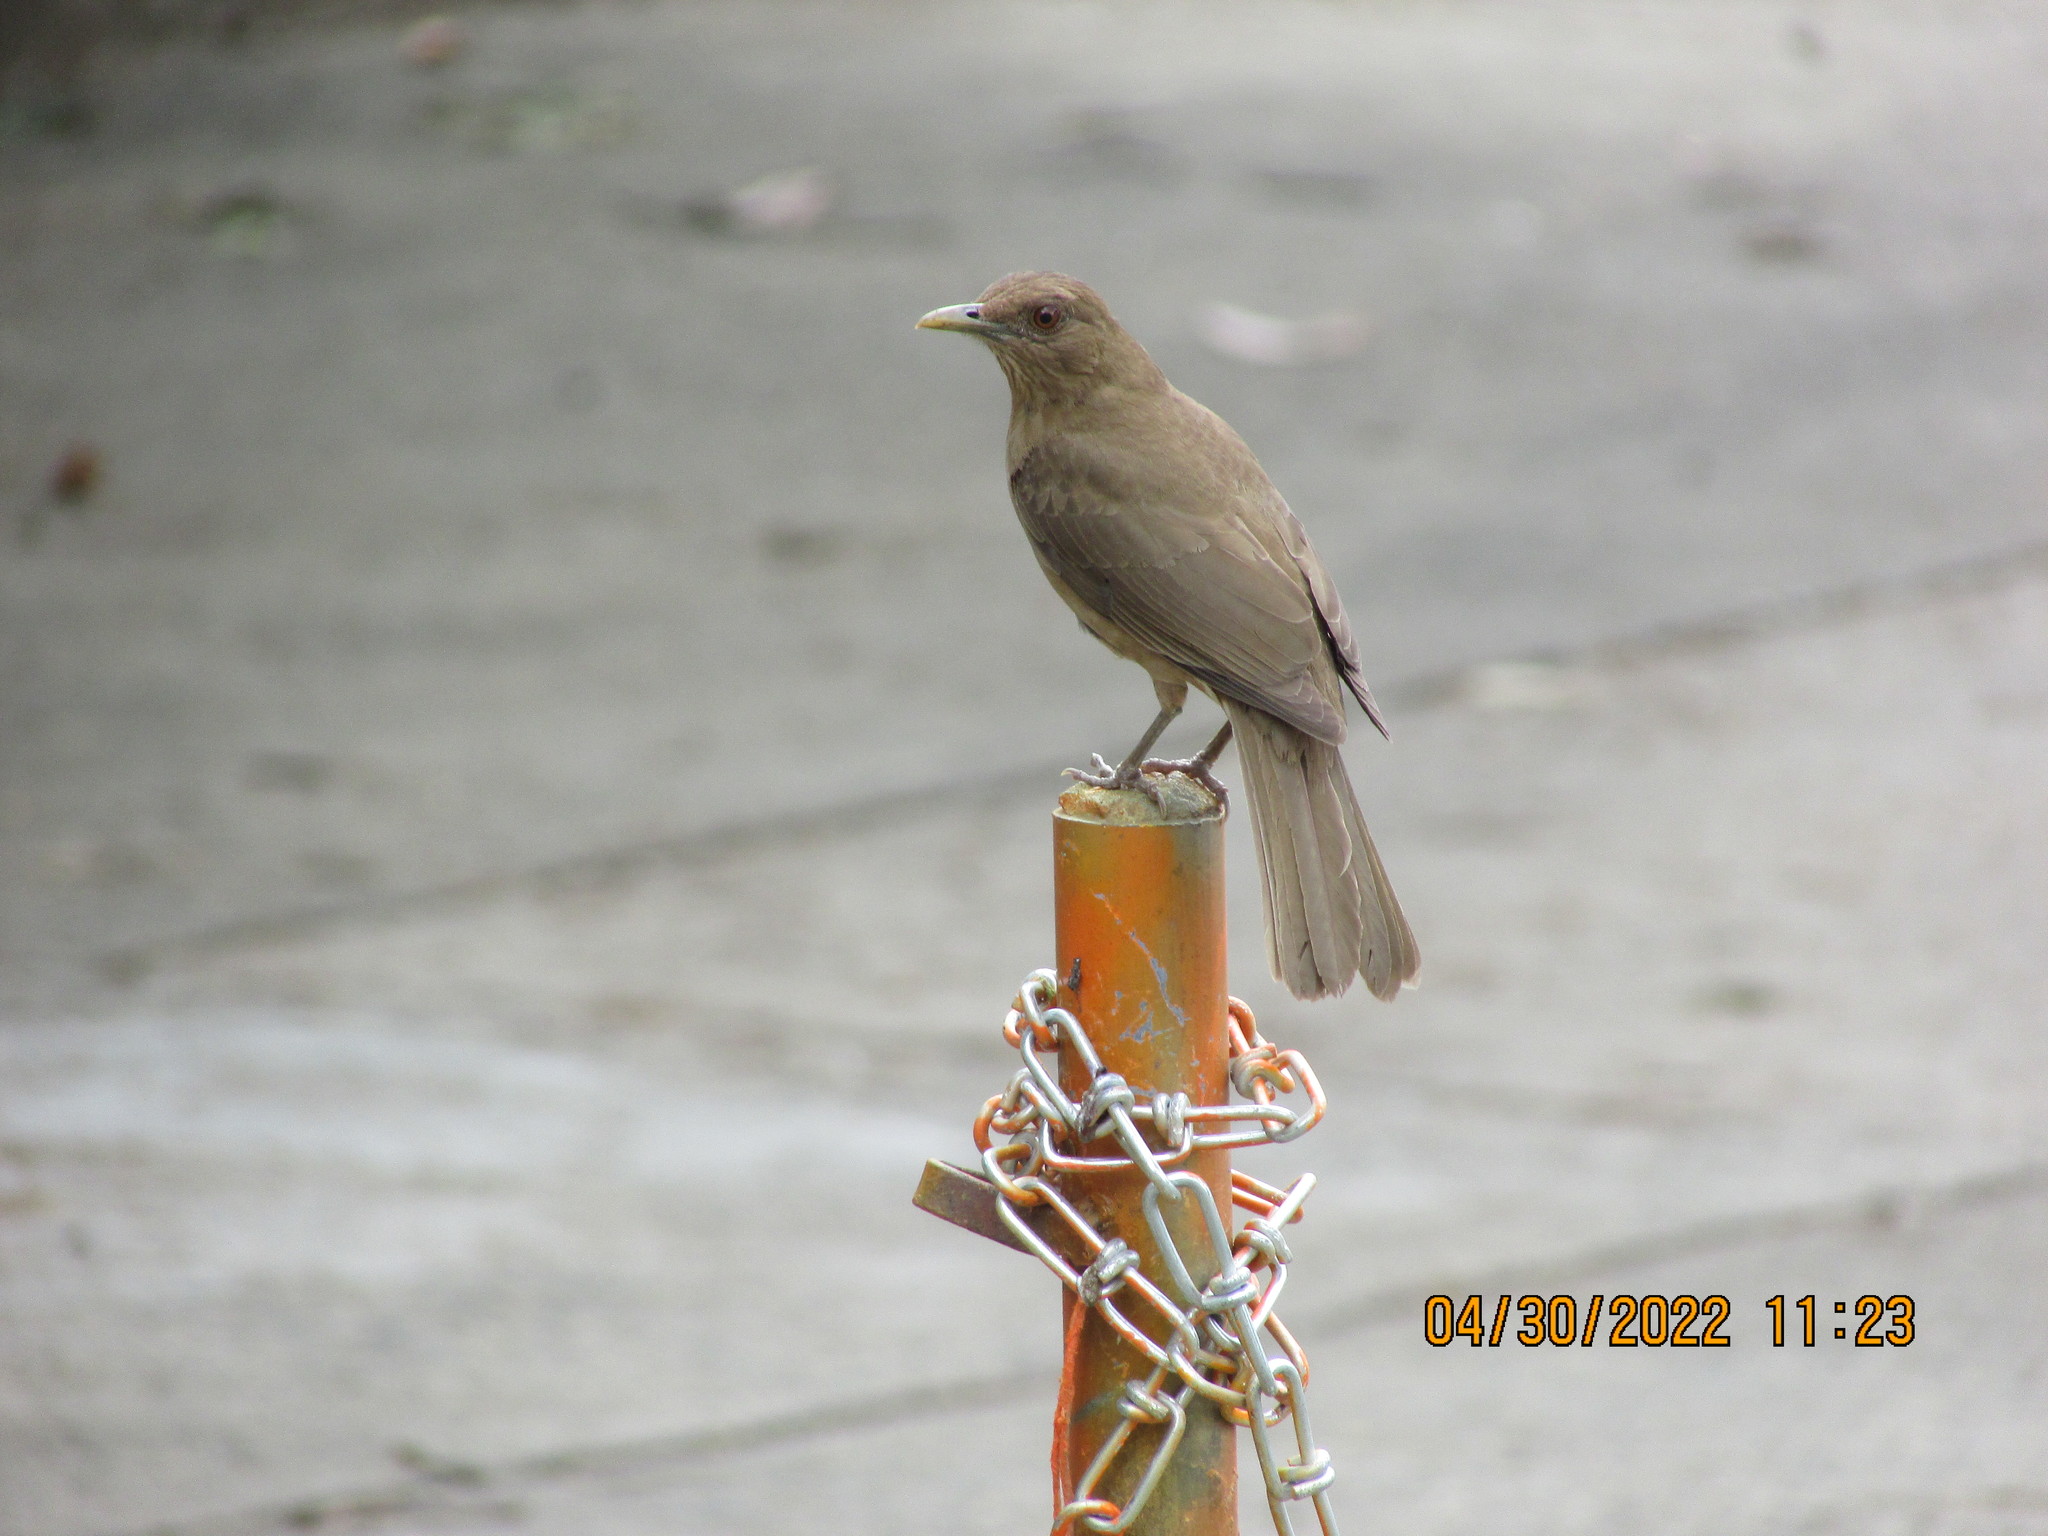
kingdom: Animalia
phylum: Chordata
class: Aves
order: Passeriformes
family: Turdidae
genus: Turdus
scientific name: Turdus grayi
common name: Clay-colored thrush
